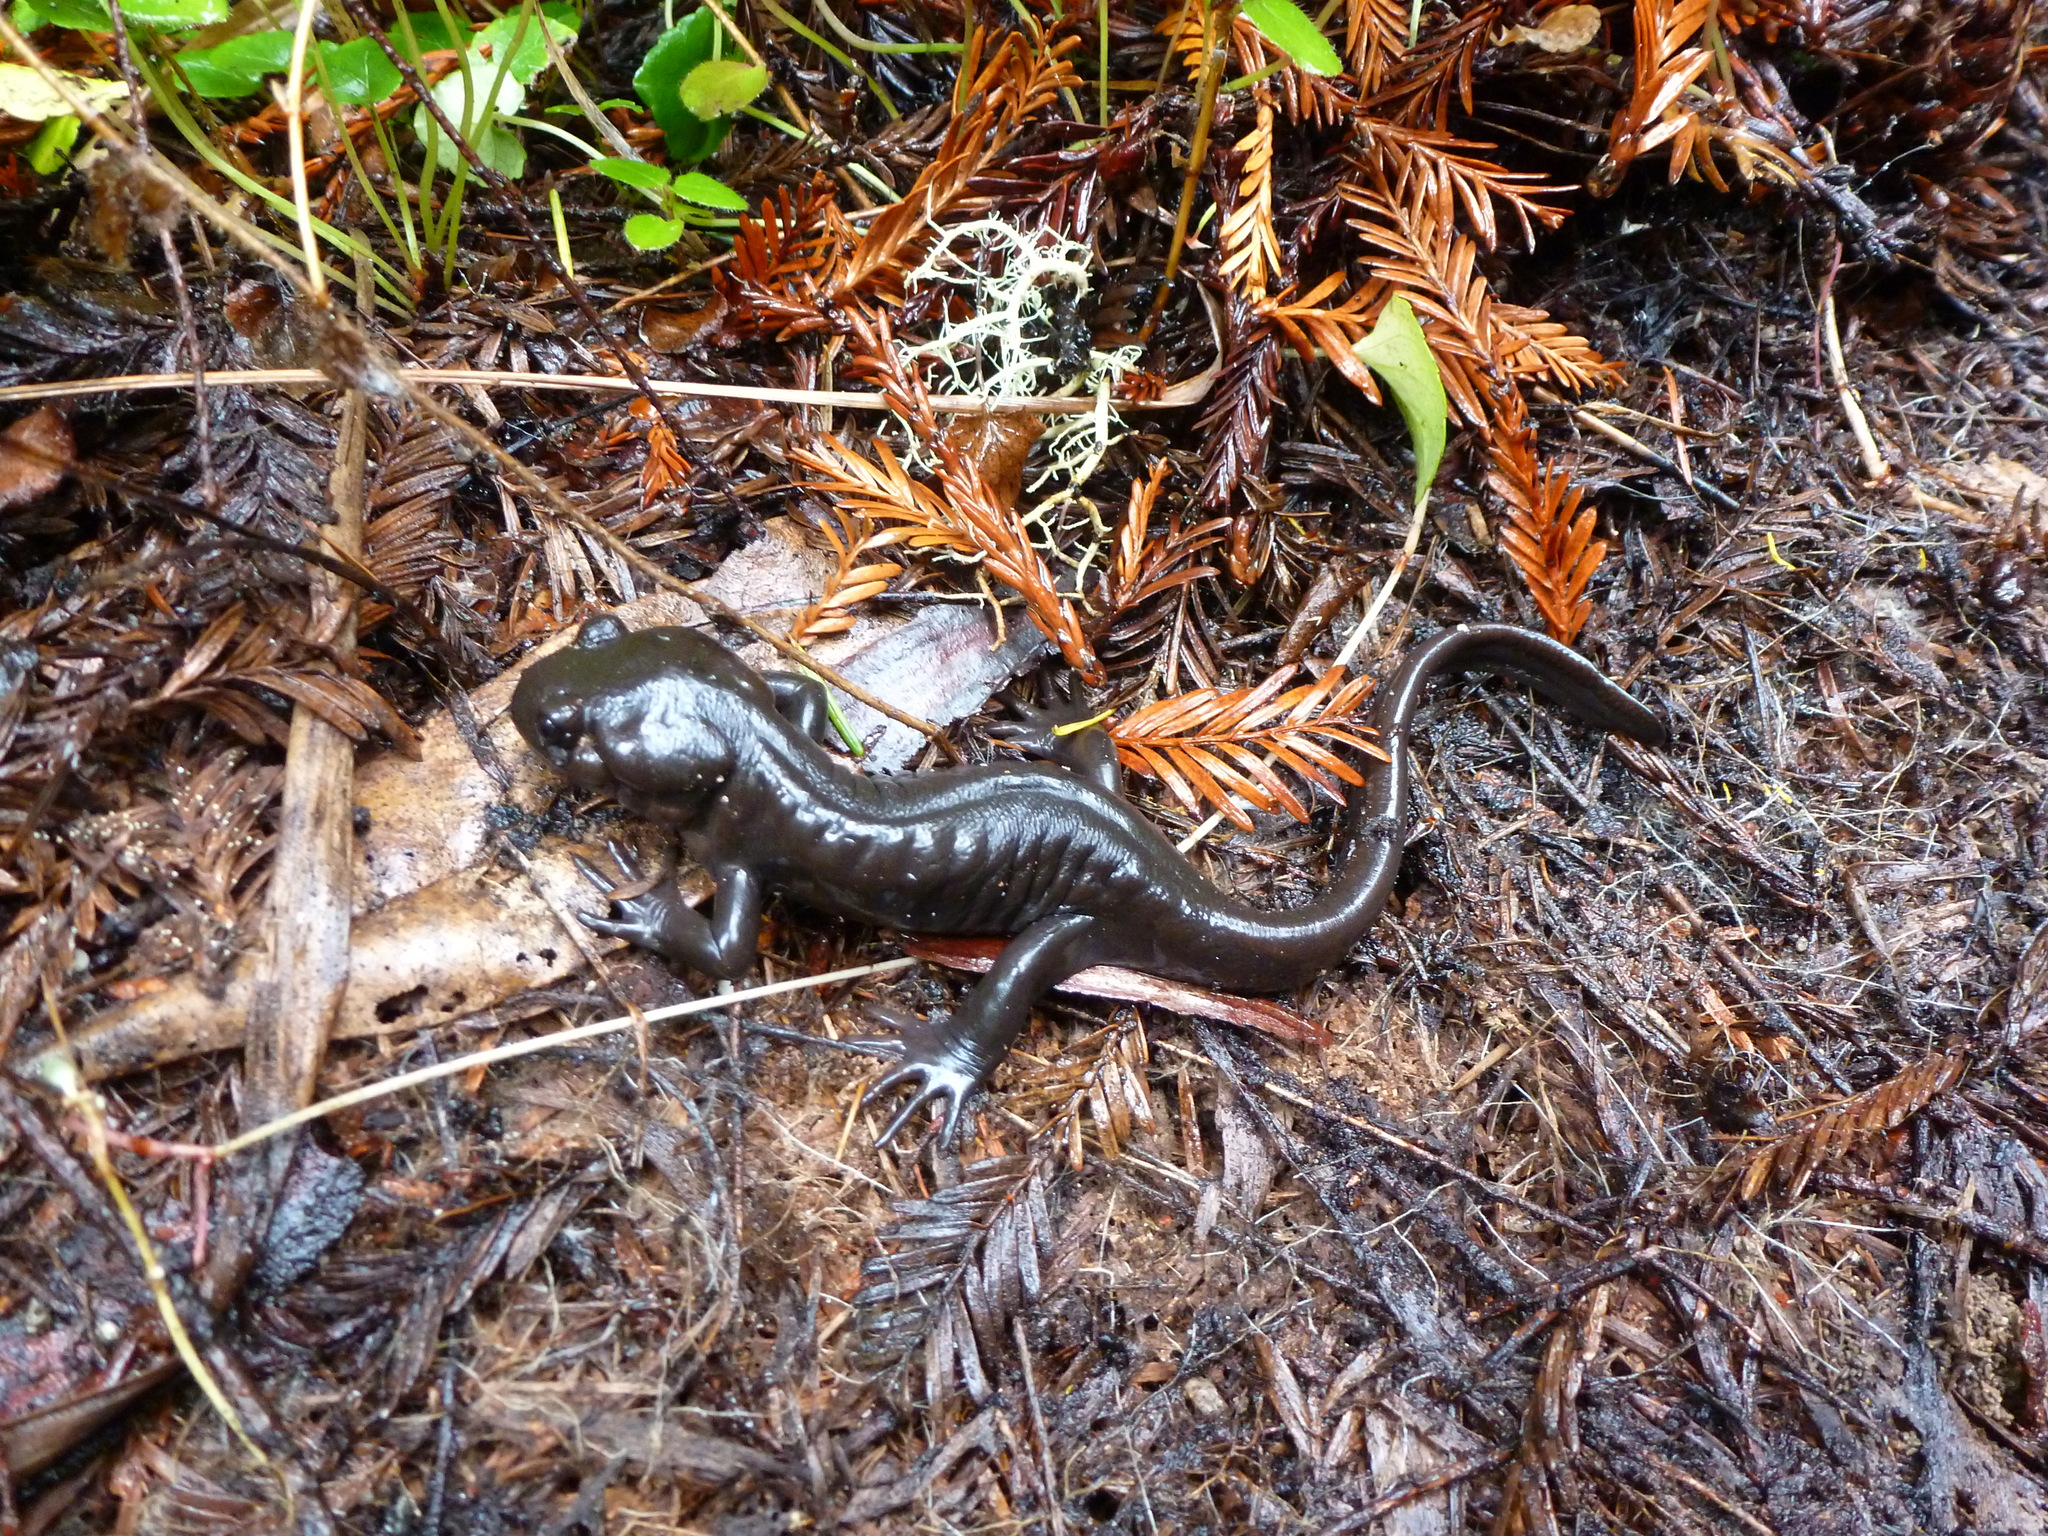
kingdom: Animalia
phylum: Chordata
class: Amphibia
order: Caudata
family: Ambystomatidae
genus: Ambystoma
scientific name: Ambystoma gracile
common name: Northwestern salamander
